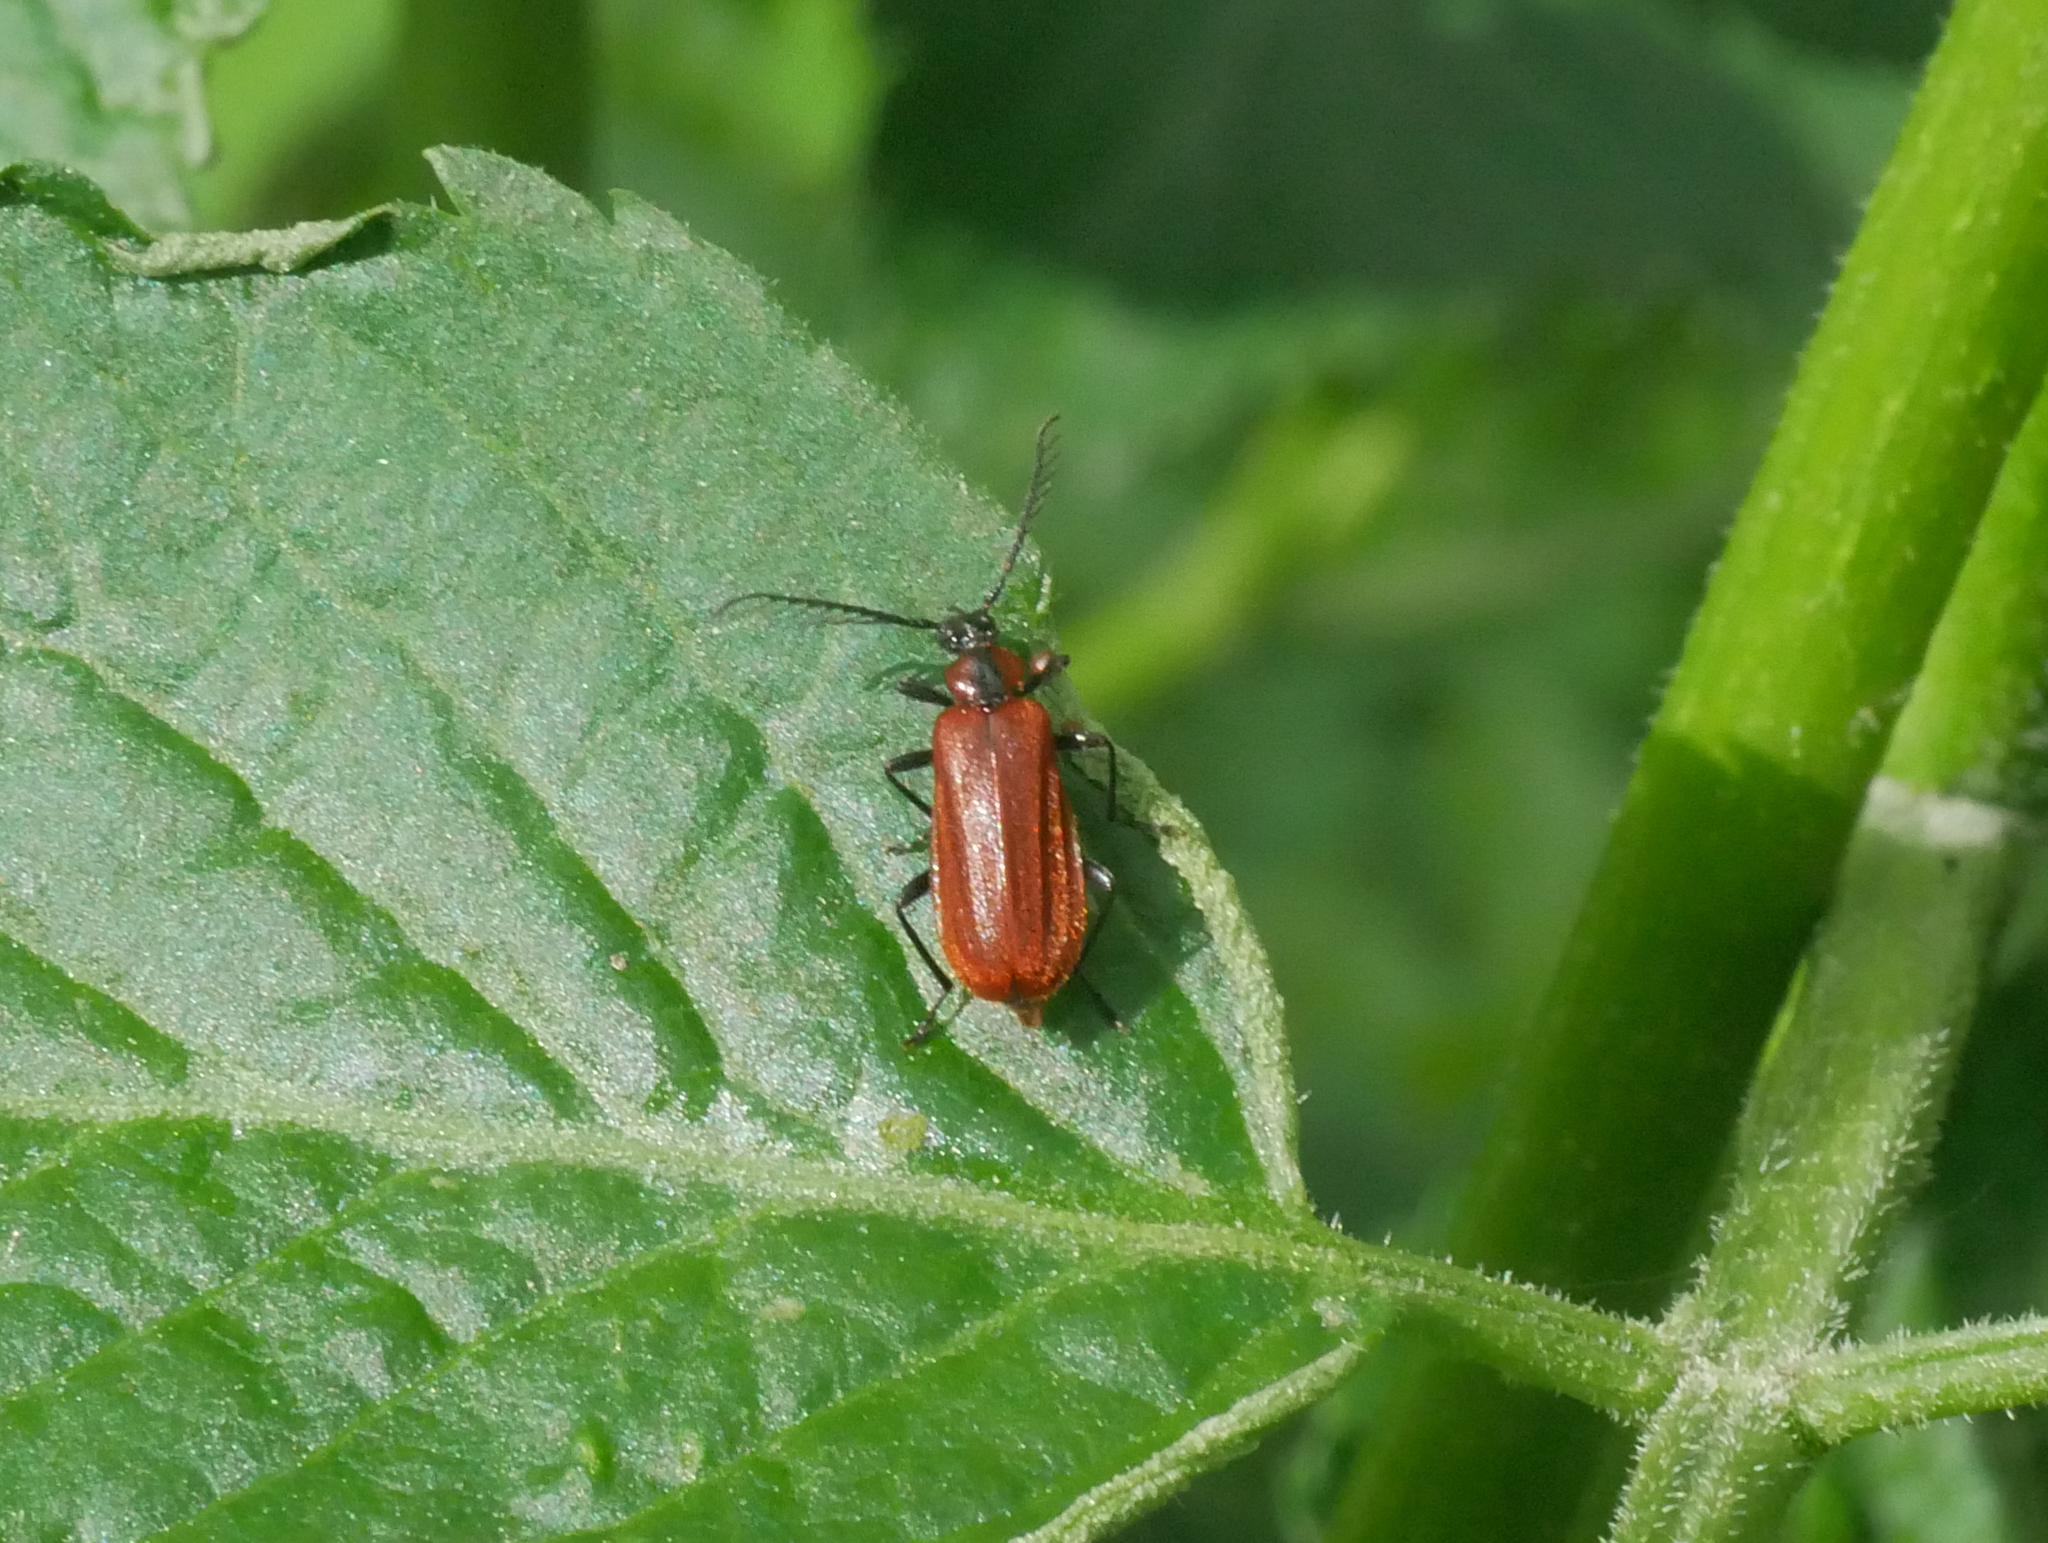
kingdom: Animalia
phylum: Arthropoda
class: Insecta
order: Coleoptera
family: Pyrochroidae
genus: Schizotus
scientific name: Schizotus pectinicornis
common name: Scarce cardinal beetle
